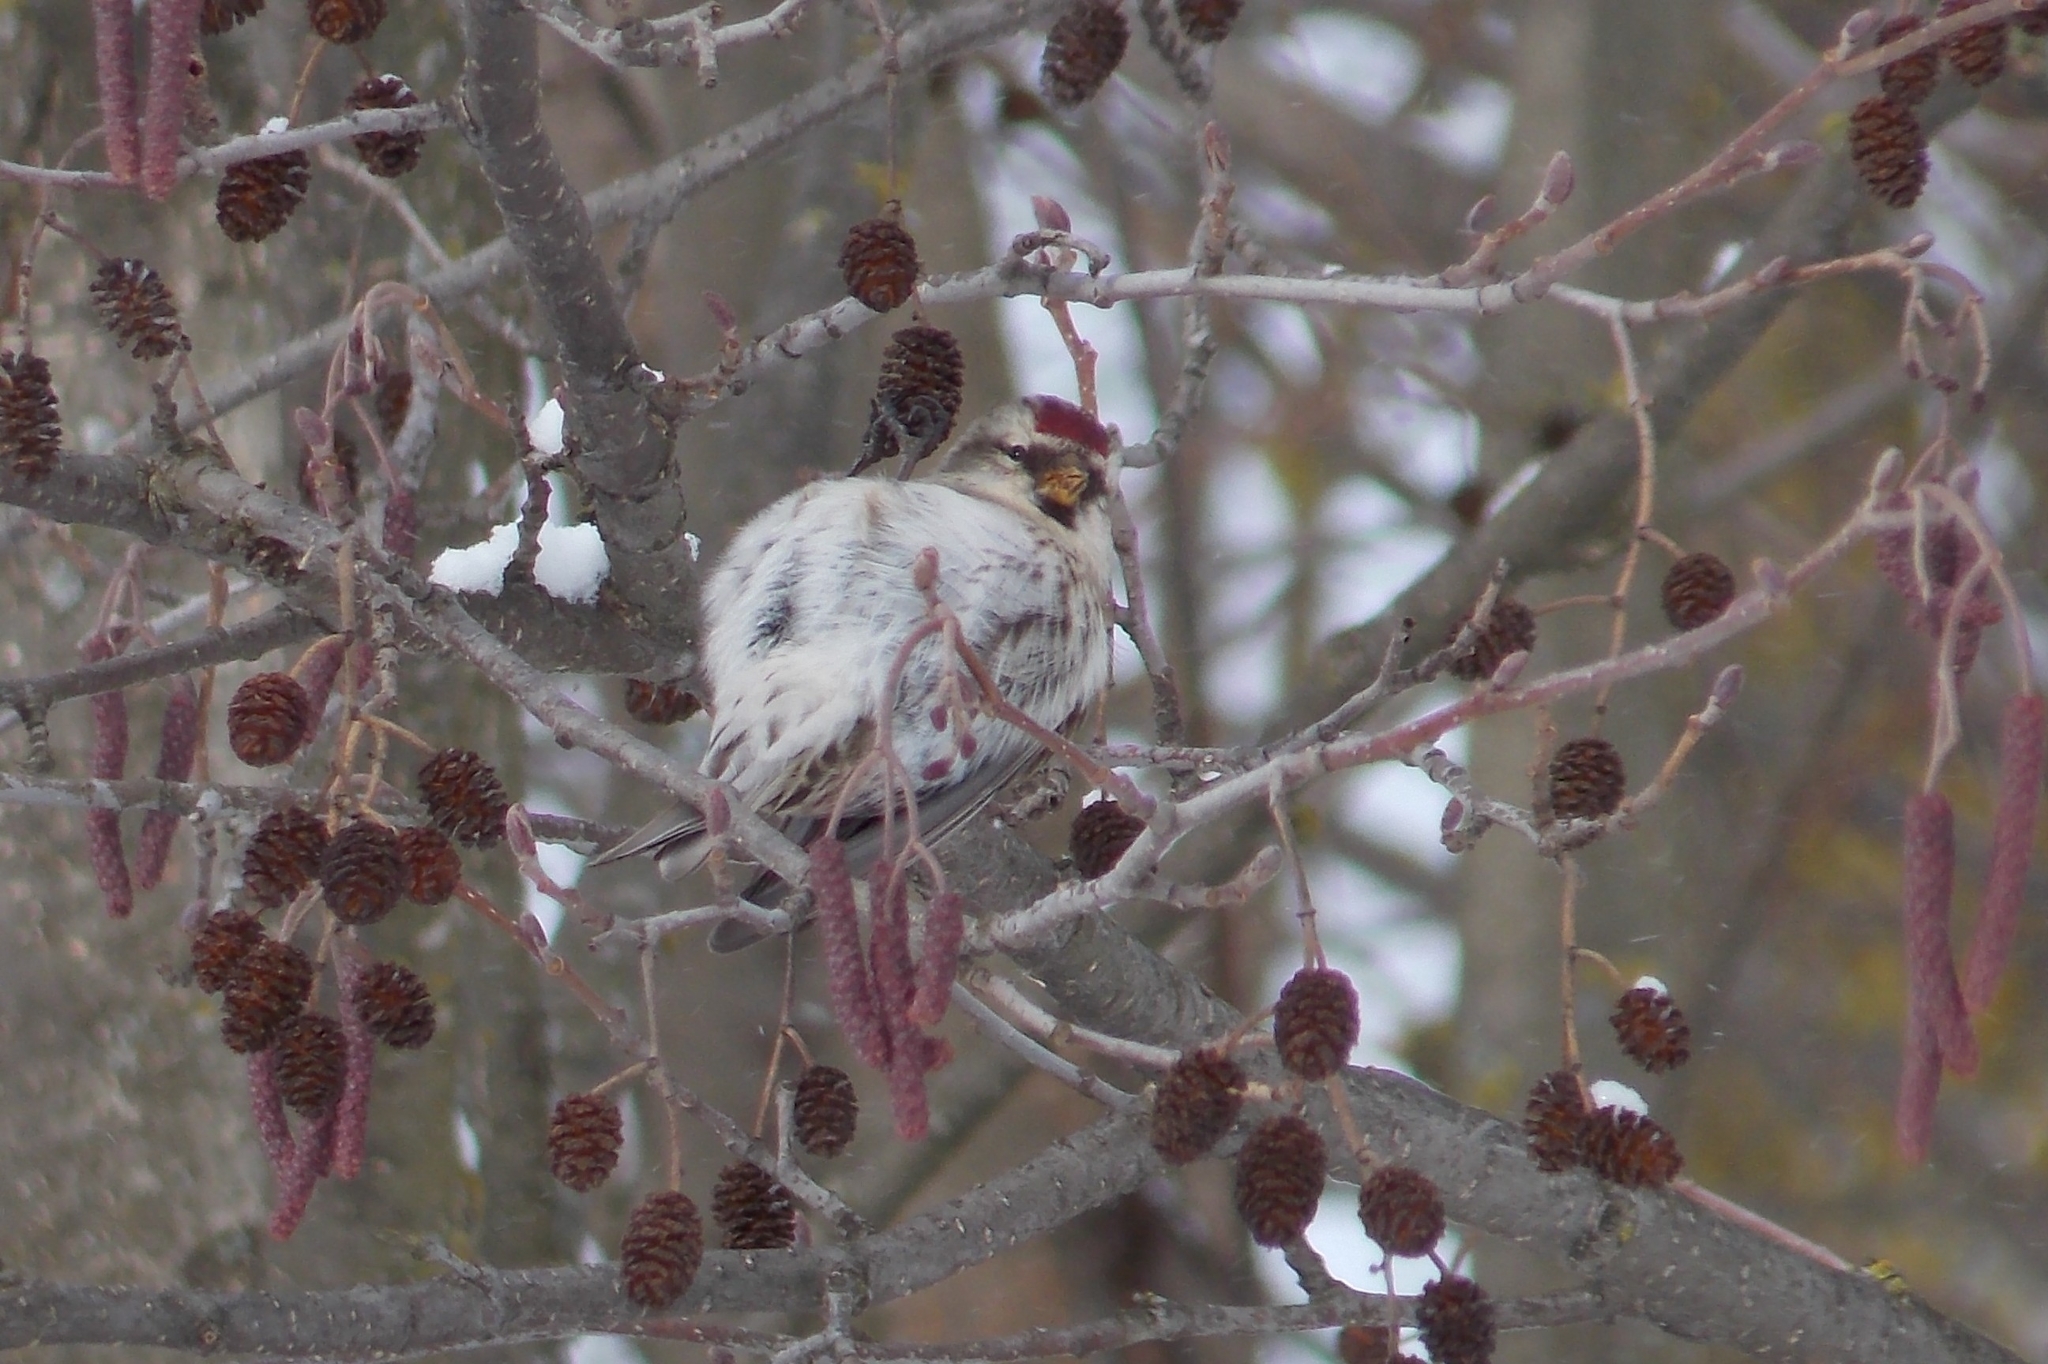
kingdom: Animalia
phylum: Chordata
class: Aves
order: Passeriformes
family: Fringillidae
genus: Acanthis
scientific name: Acanthis flammea
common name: Common redpoll
